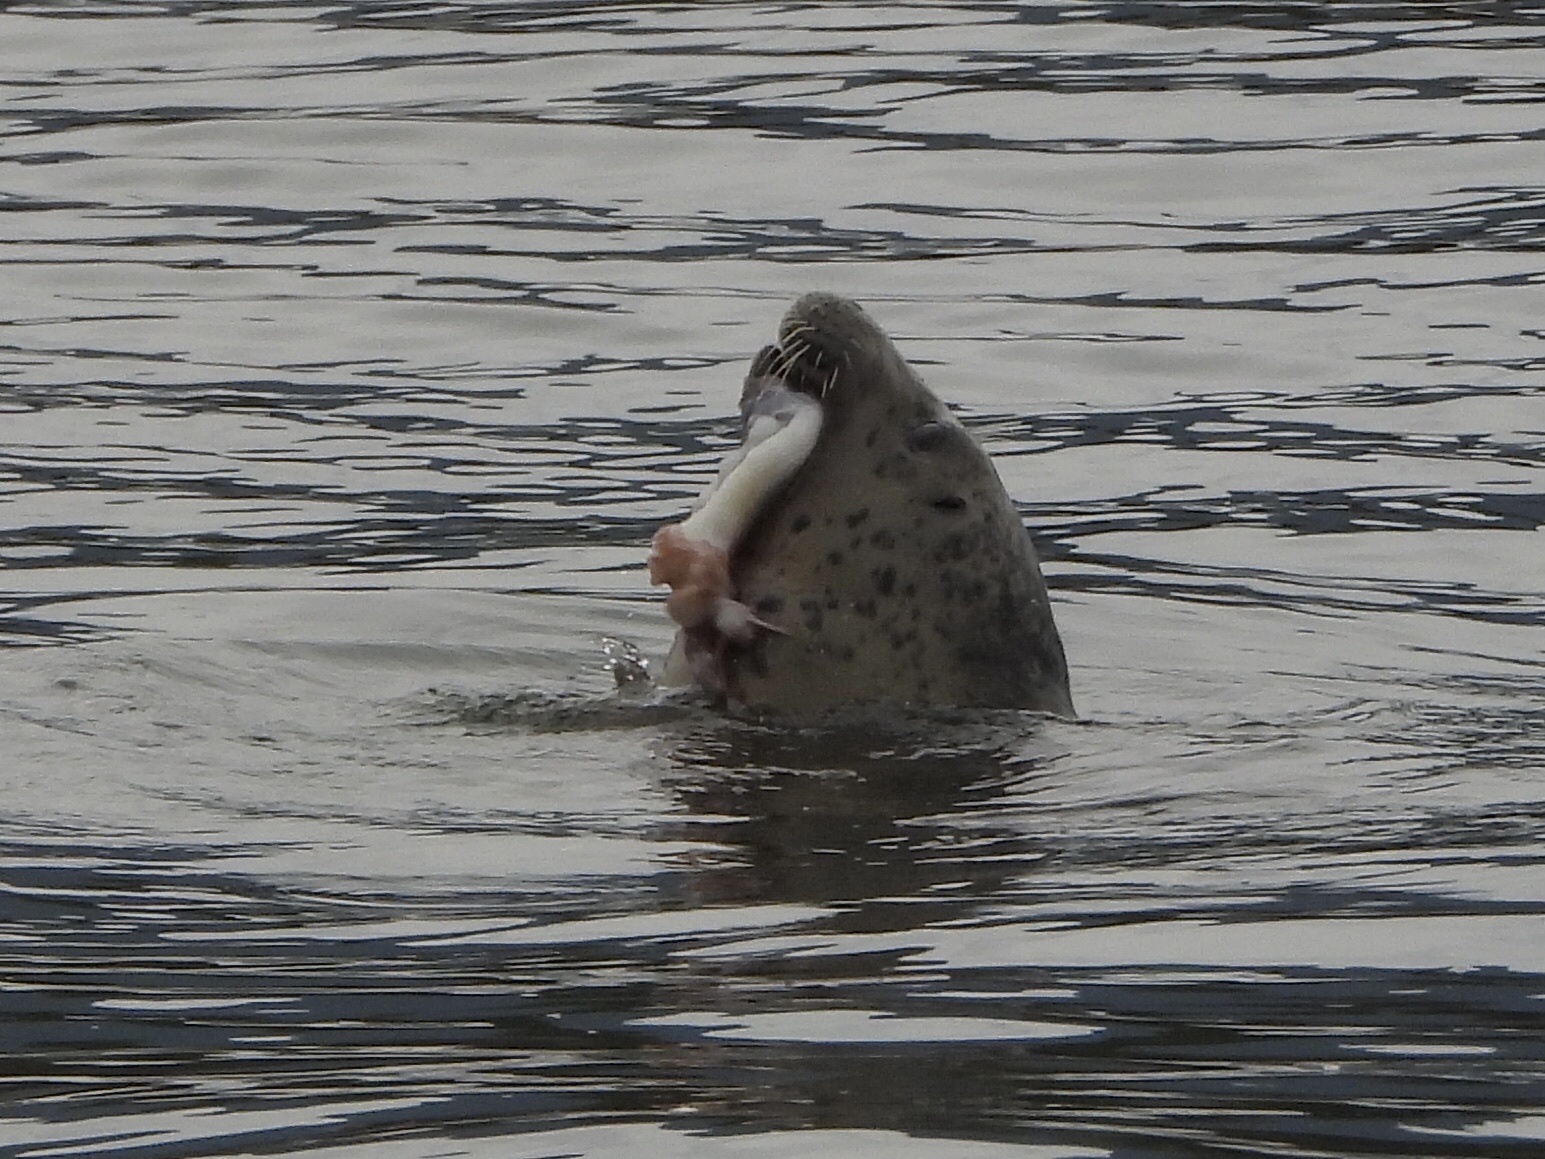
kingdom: Animalia
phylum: Mollusca
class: Cephalopoda
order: Octopoda
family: Enteroctopodidae
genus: Enteroctopus
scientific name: Enteroctopus dofleini
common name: Giant north pacific octopus
